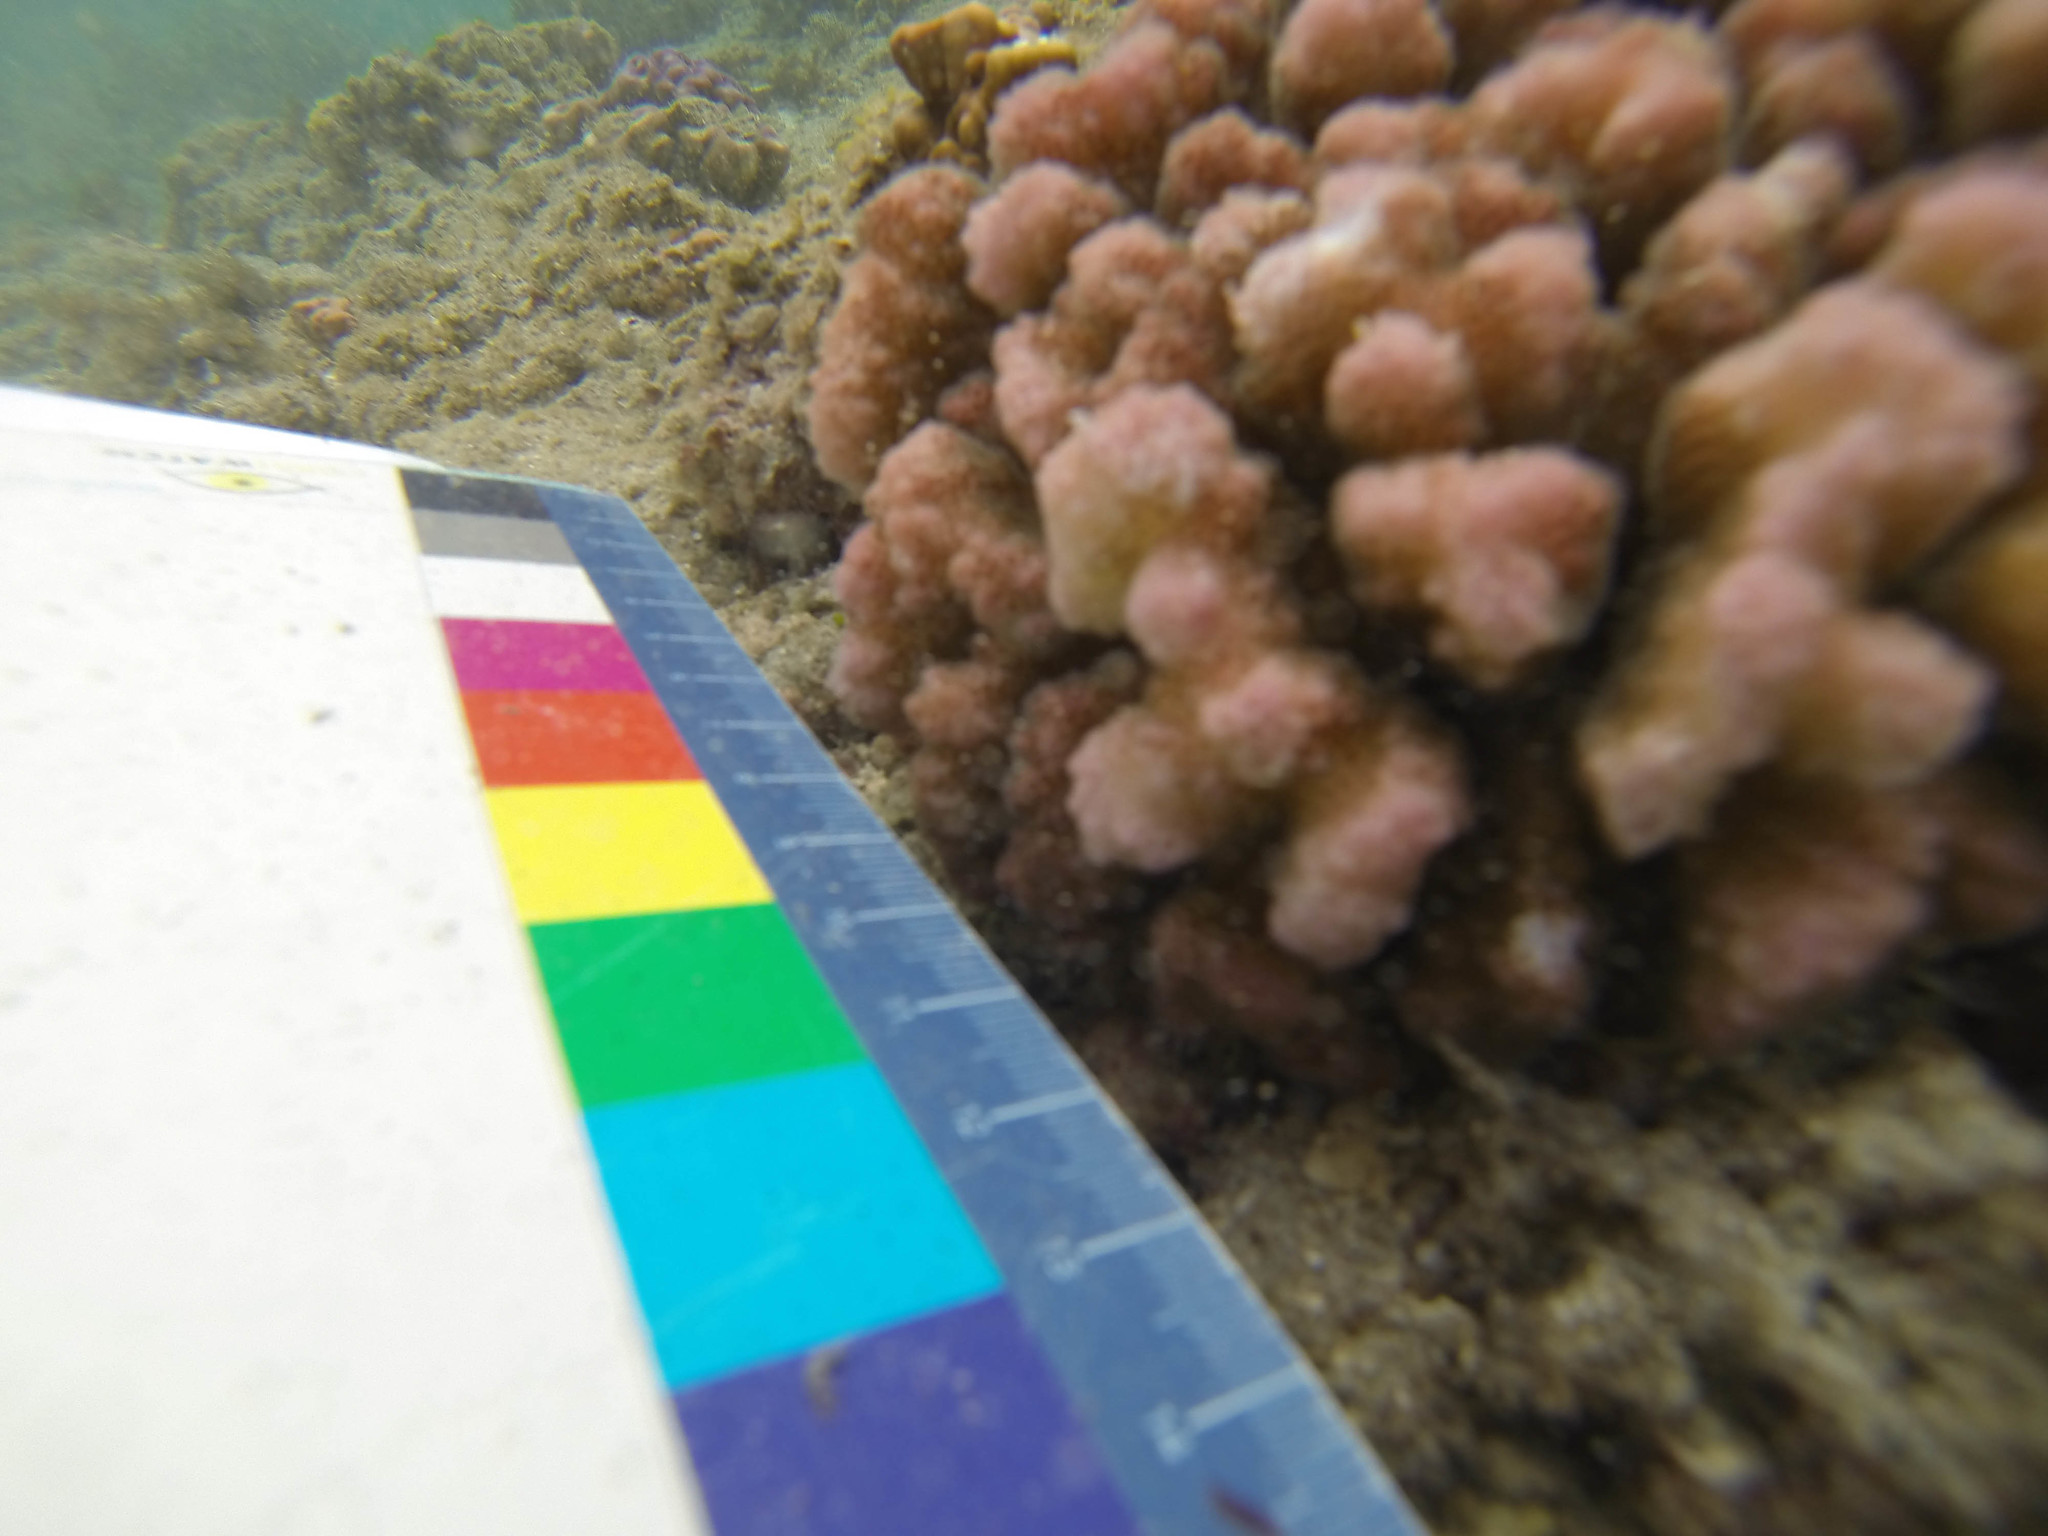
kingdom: Animalia
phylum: Cnidaria
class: Anthozoa
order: Scleractinia
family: Pocilloporidae
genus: Pocillopora
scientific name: Pocillopora meandrina
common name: Cauliflower coral
